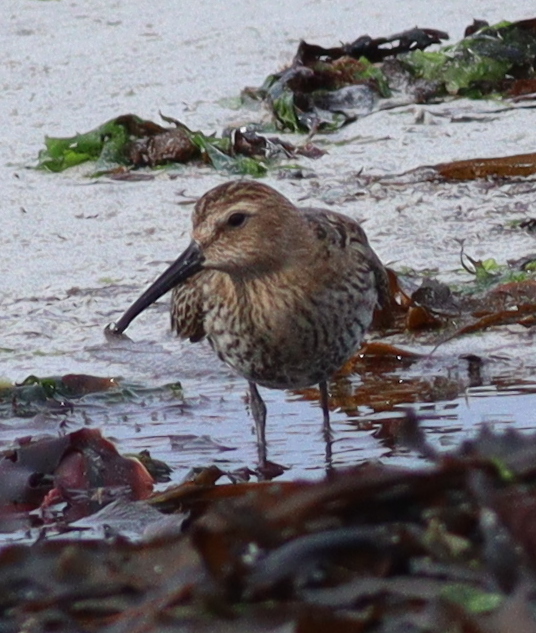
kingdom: Animalia
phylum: Chordata
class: Aves
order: Charadriiformes
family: Scolopacidae
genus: Calidris
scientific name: Calidris alpina
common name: Dunlin
